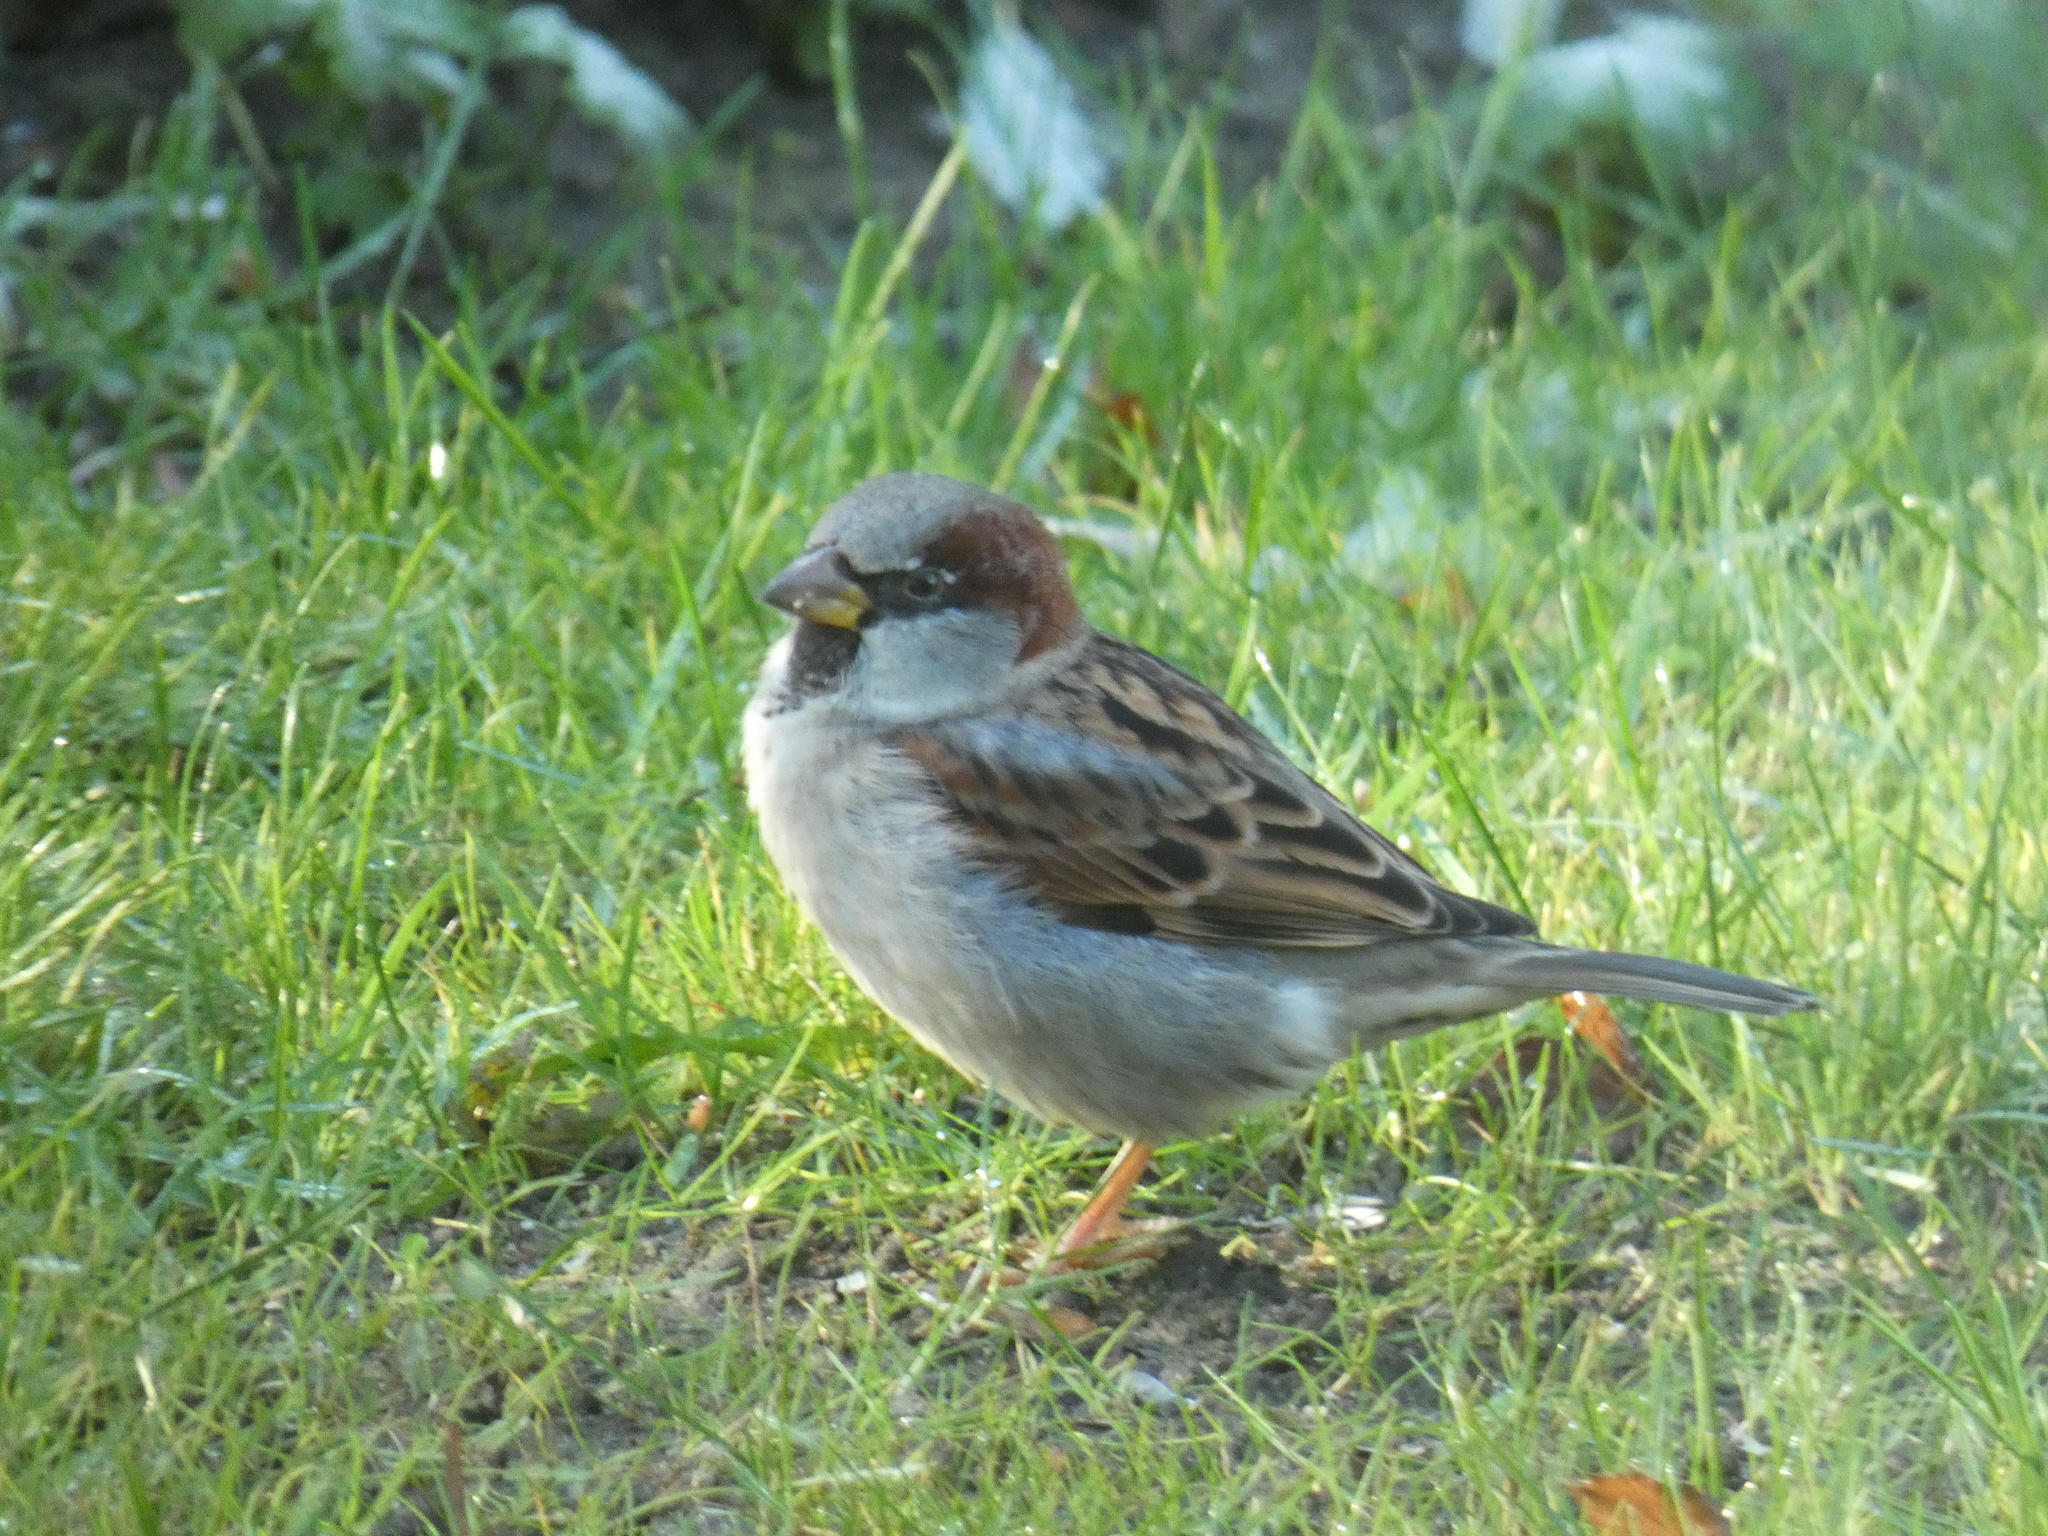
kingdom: Animalia
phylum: Chordata
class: Aves
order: Passeriformes
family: Passeridae
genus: Passer
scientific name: Passer domesticus
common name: House sparrow
